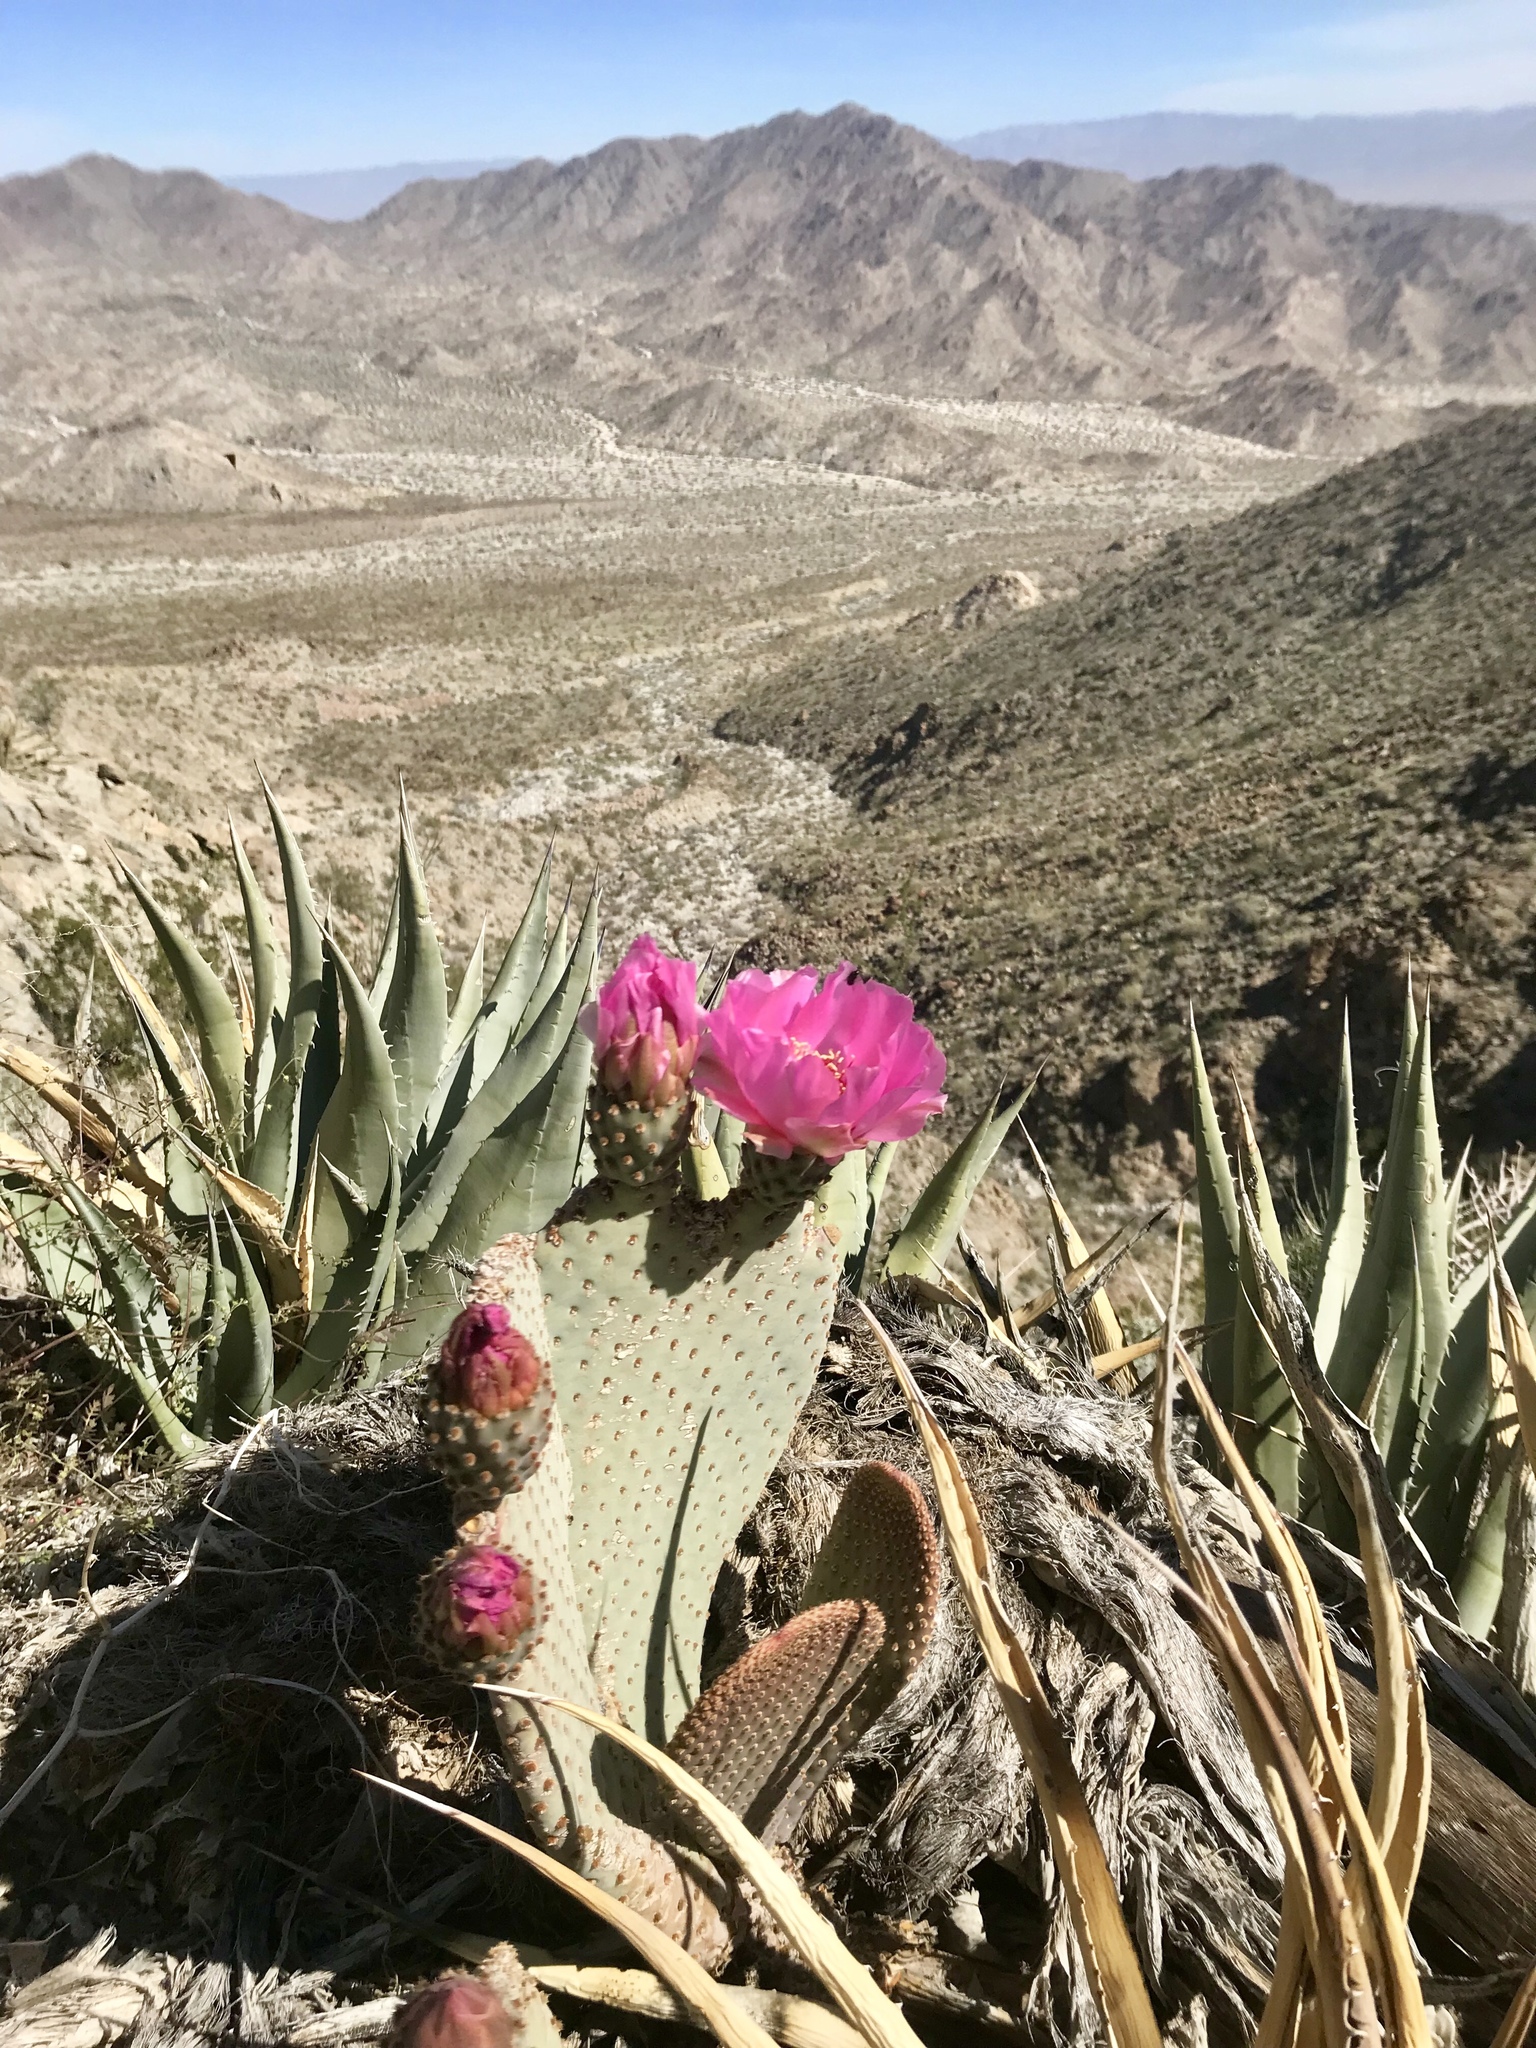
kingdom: Plantae
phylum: Tracheophyta
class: Magnoliopsida
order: Caryophyllales
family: Cactaceae
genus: Opuntia
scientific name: Opuntia basilaris
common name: Beavertail prickly-pear
